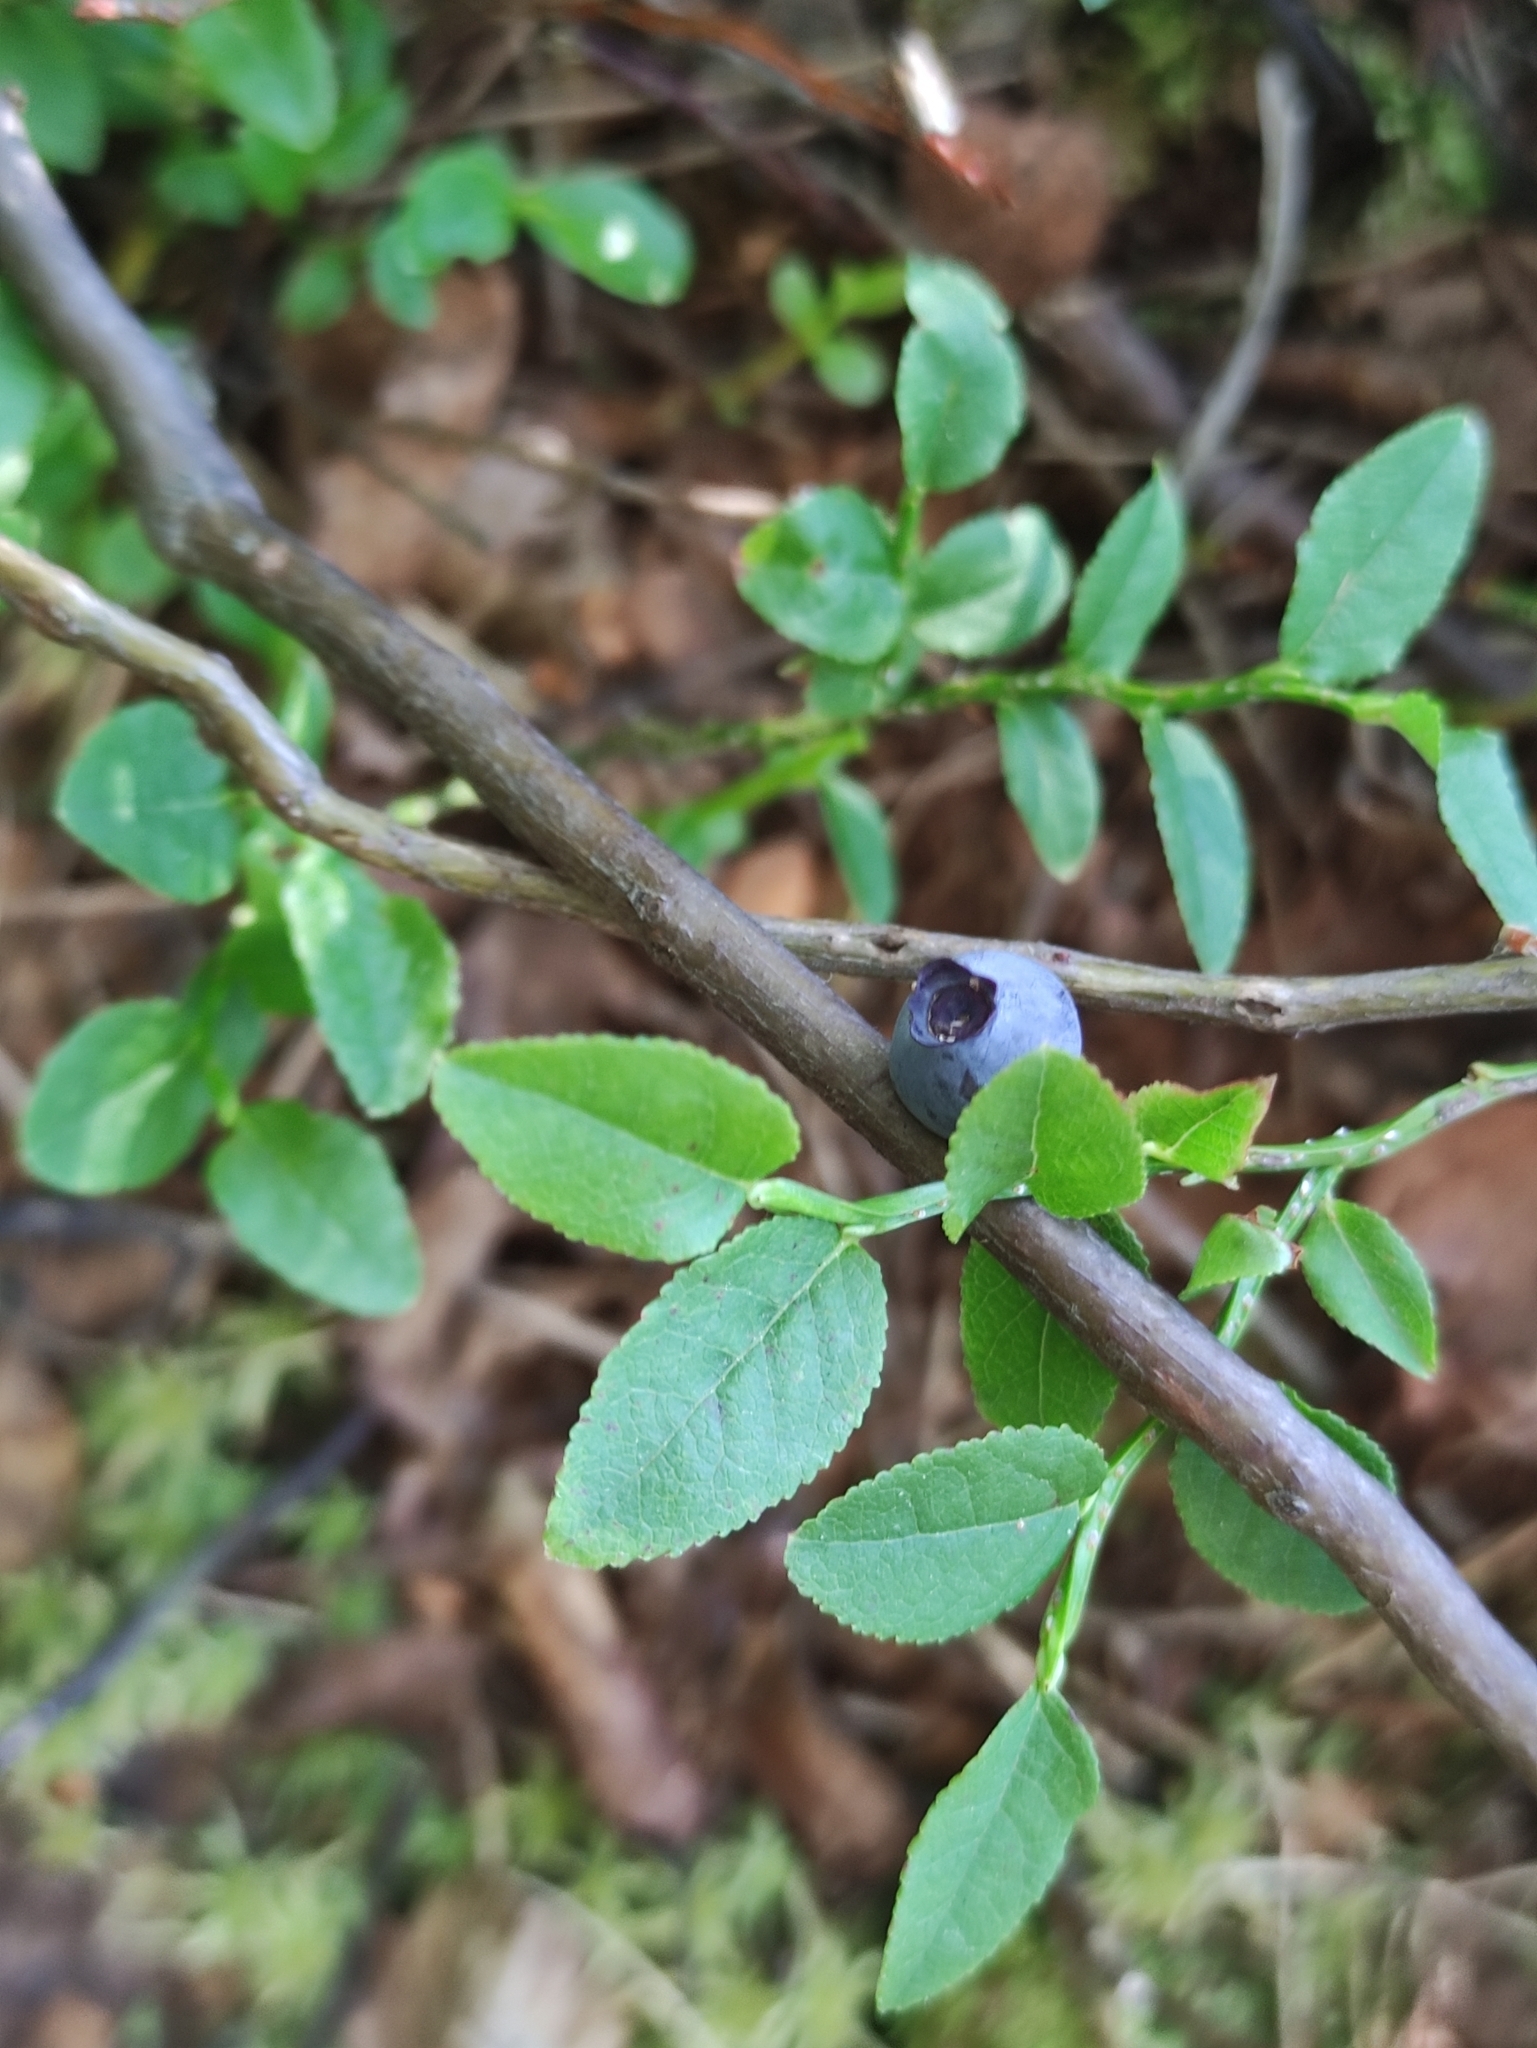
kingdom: Plantae
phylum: Tracheophyta
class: Magnoliopsida
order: Ericales
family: Ericaceae
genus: Vaccinium
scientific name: Vaccinium myrtillus
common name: Bilberry
